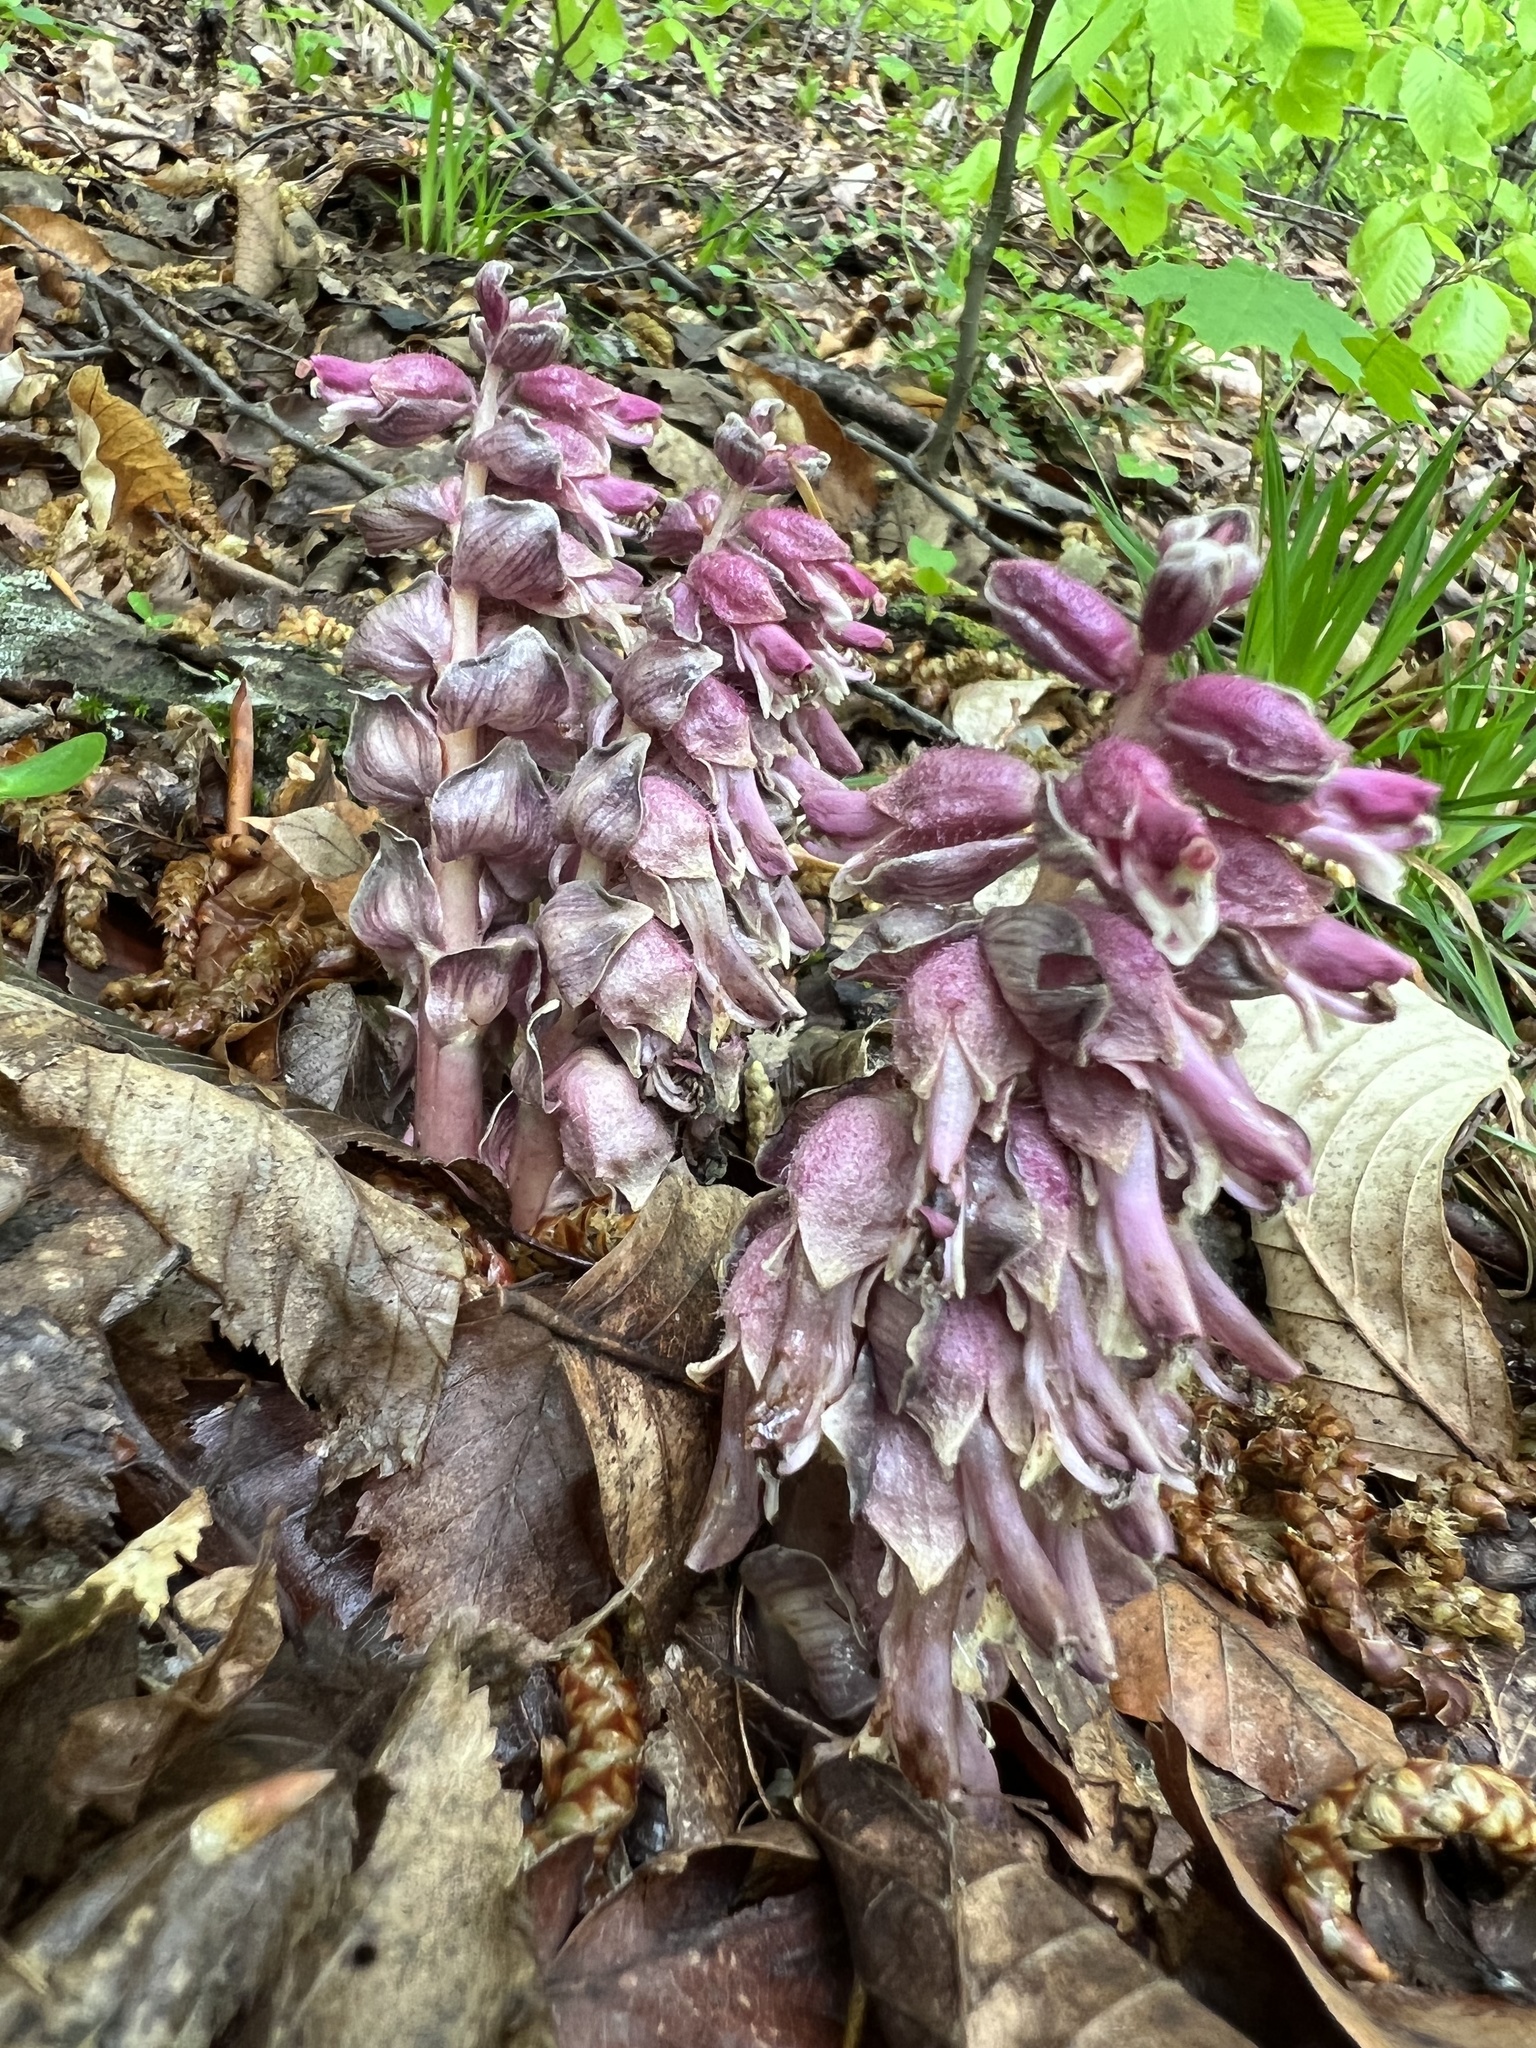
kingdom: Plantae
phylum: Tracheophyta
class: Magnoliopsida
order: Lamiales
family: Orobanchaceae
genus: Lathraea
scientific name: Lathraea squamaria
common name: Toothwort
